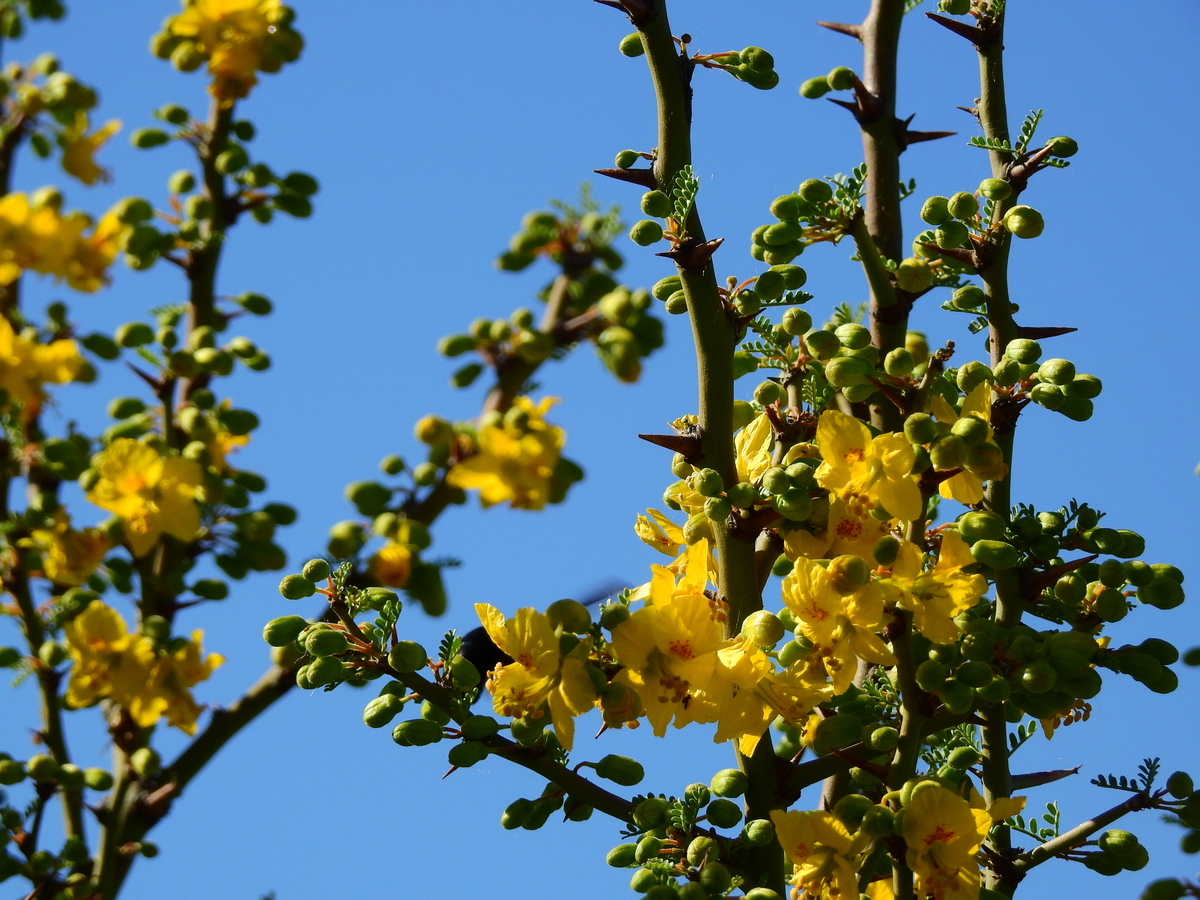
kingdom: Plantae
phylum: Tracheophyta
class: Magnoliopsida
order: Fabales
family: Fabaceae
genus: Parkinsonia
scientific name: Parkinsonia praecox
